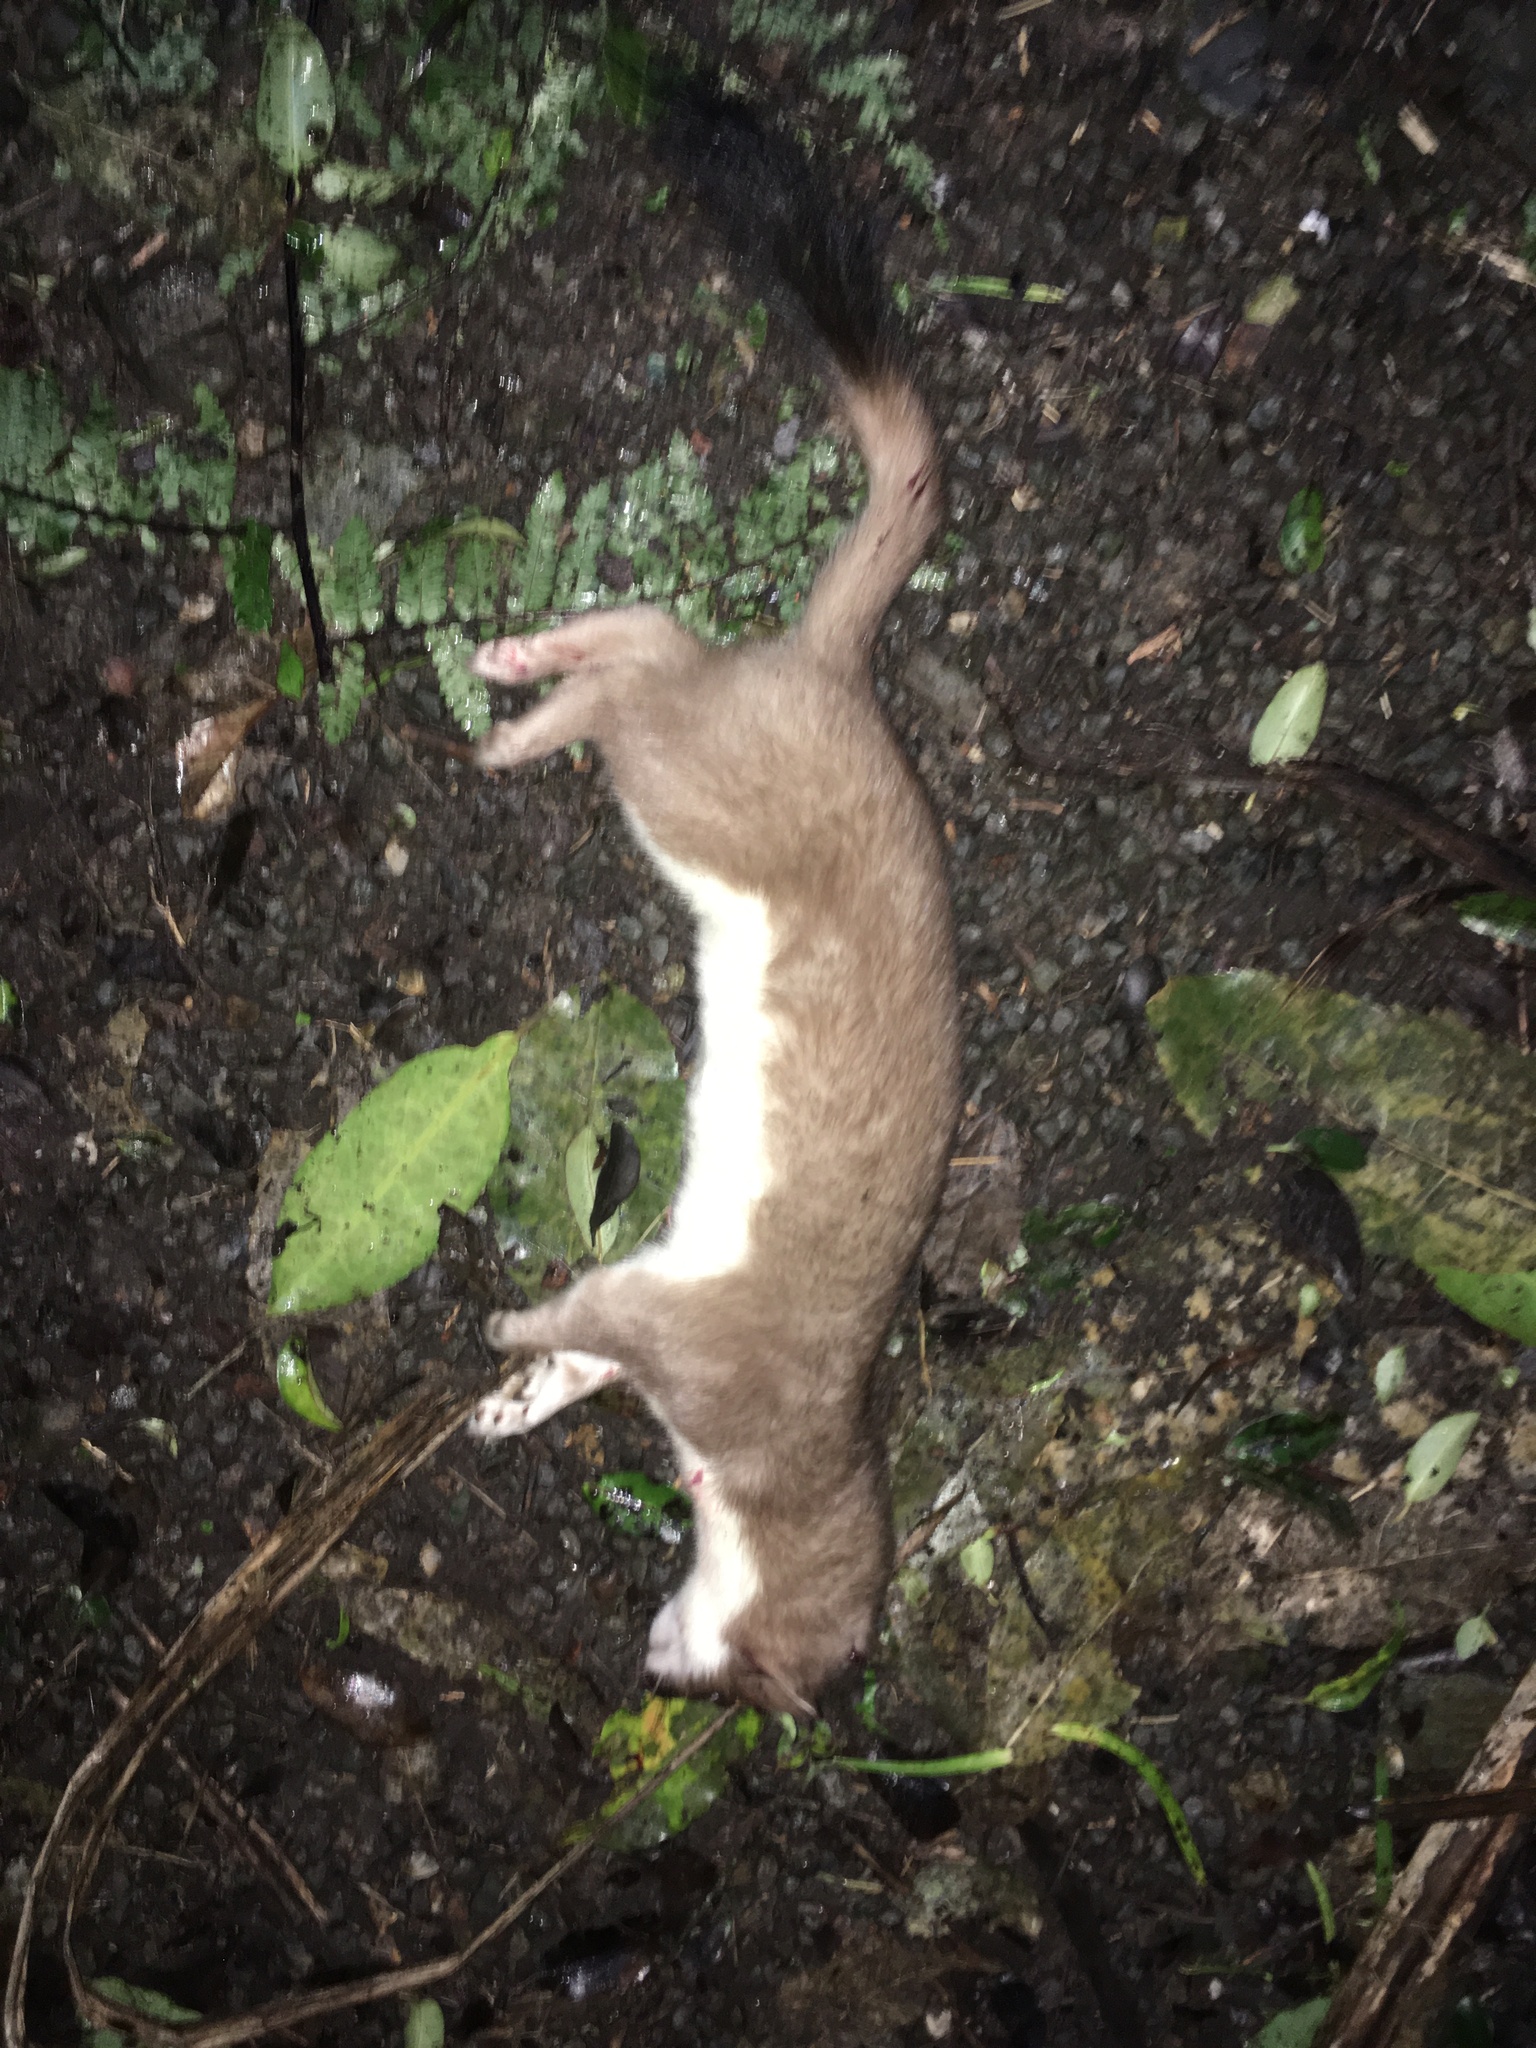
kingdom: Animalia
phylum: Chordata
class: Mammalia
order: Carnivora
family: Mustelidae
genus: Mustela
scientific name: Mustela erminea
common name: Stoat
